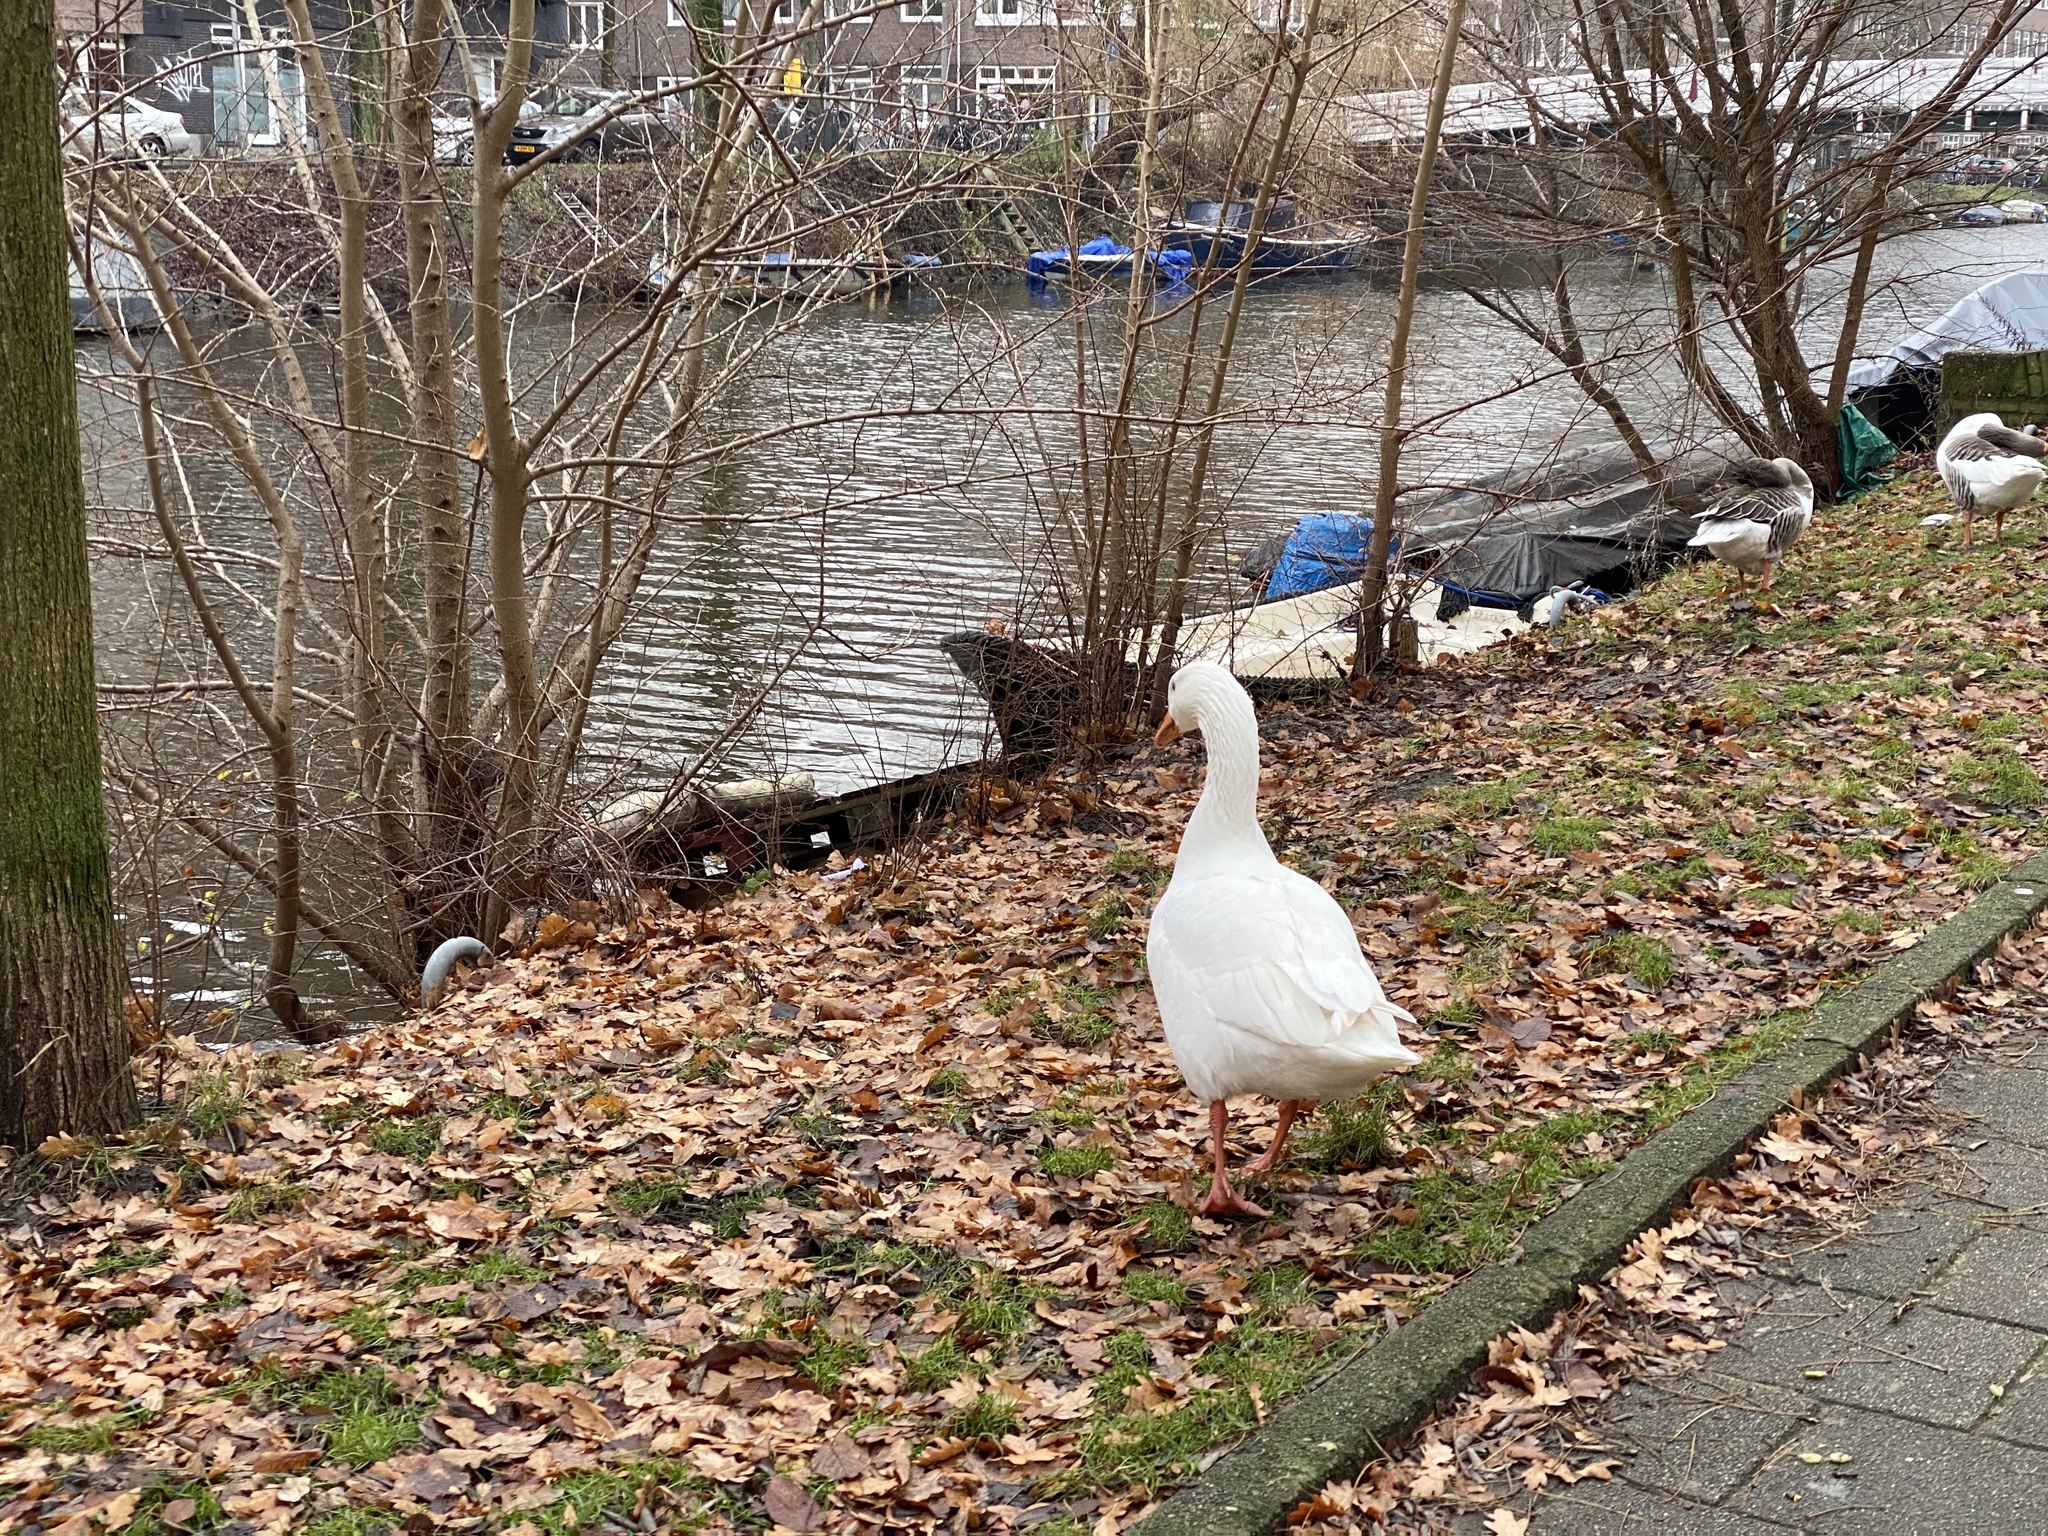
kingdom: Animalia
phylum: Chordata
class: Aves
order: Anseriformes
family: Anatidae
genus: Anser
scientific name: Anser anser
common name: Greylag goose
